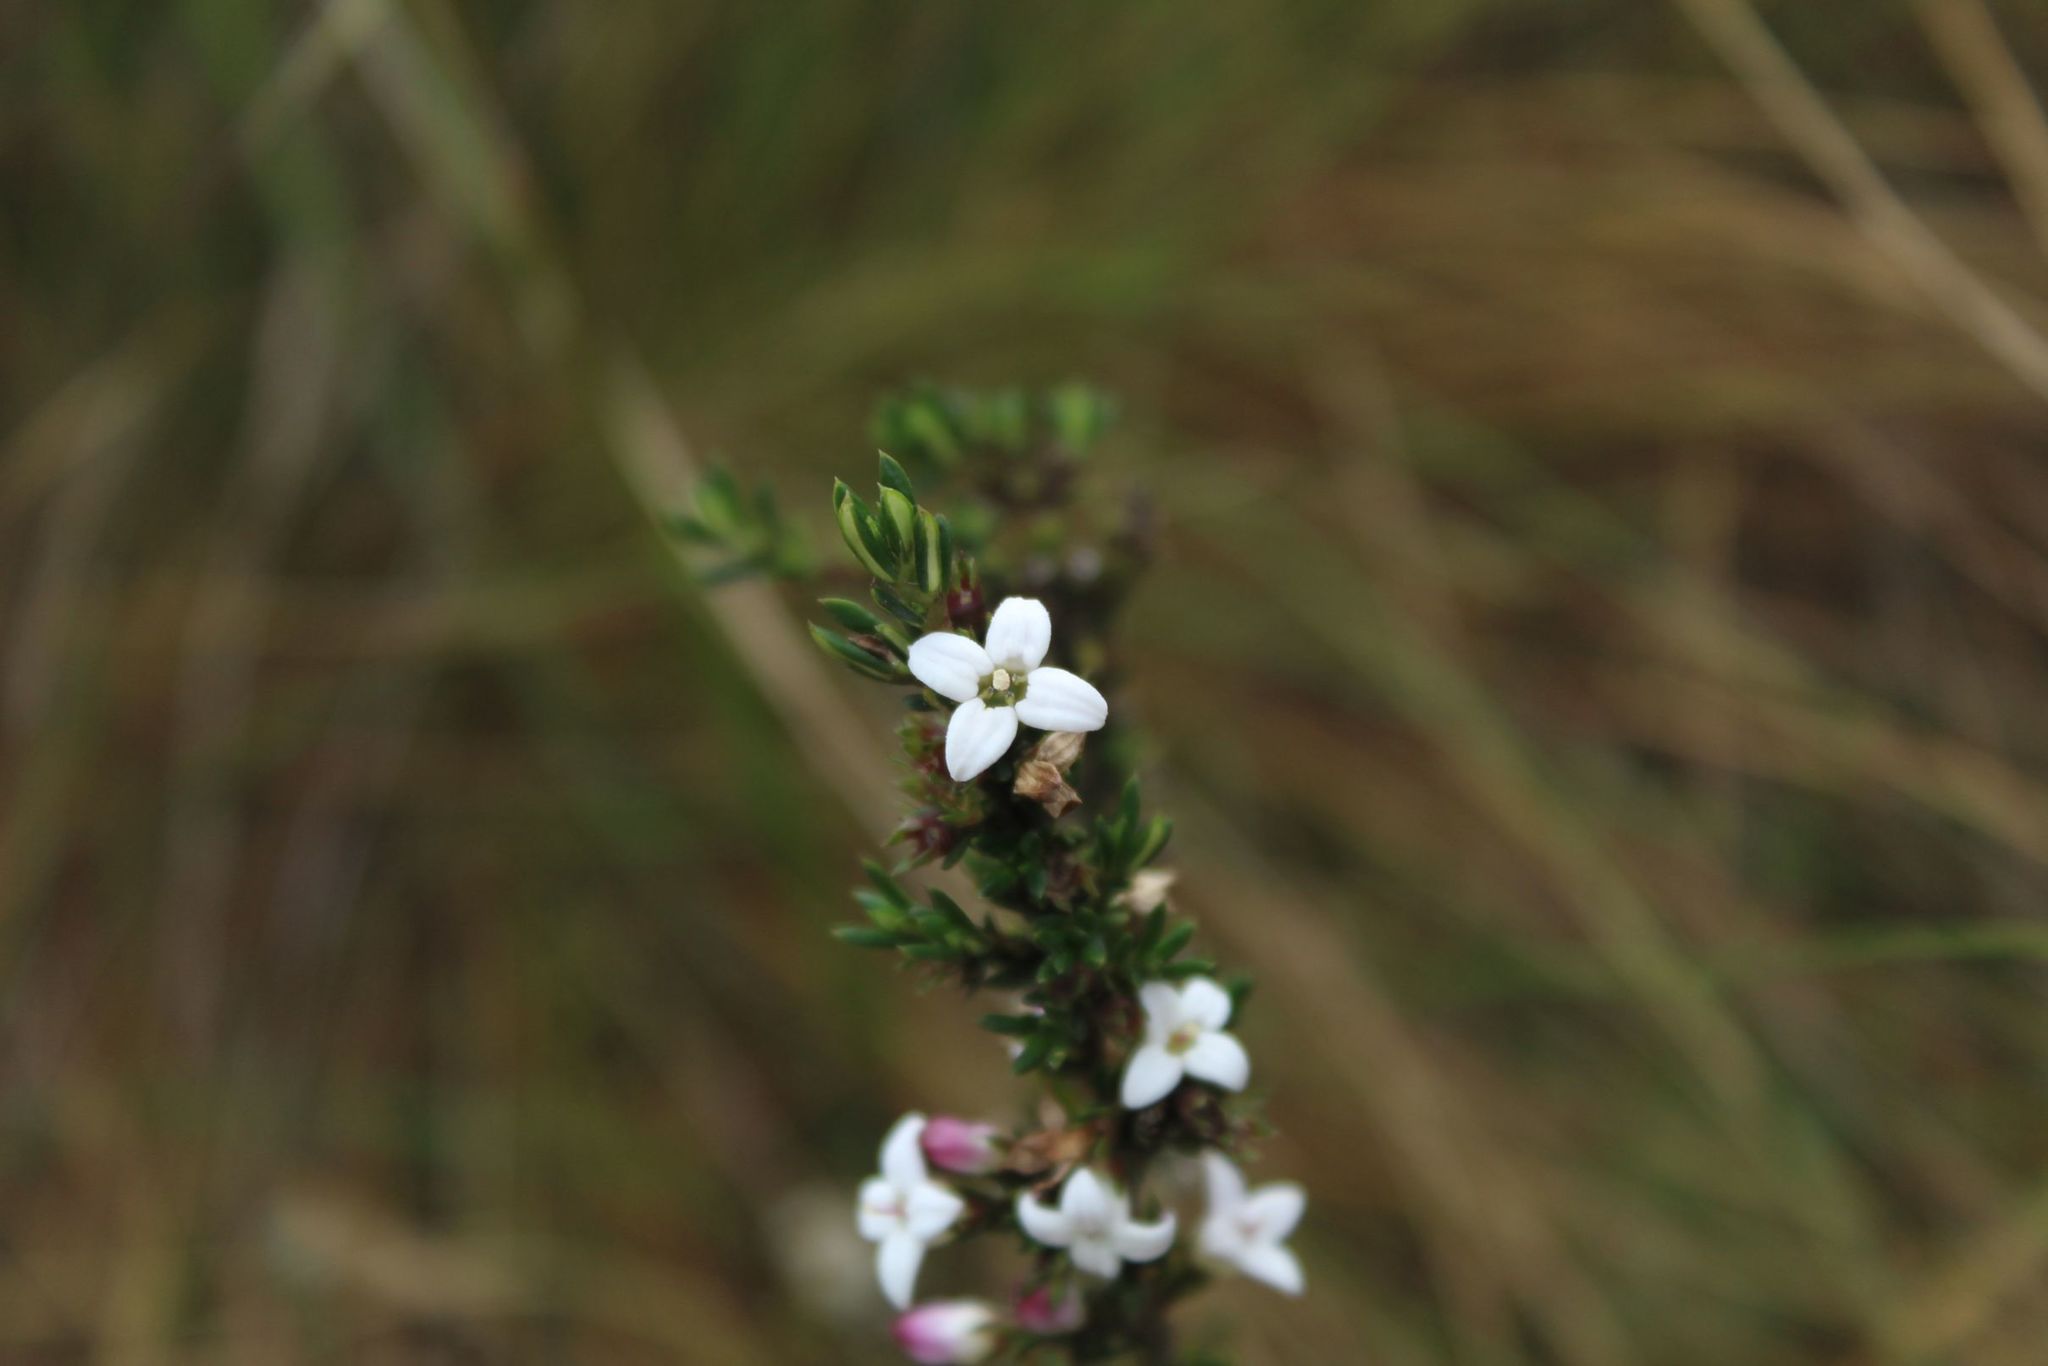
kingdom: Plantae
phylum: Tracheophyta
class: Magnoliopsida
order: Gentianales
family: Rubiaceae
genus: Arcytophyllum
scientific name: Arcytophyllum nitidum
